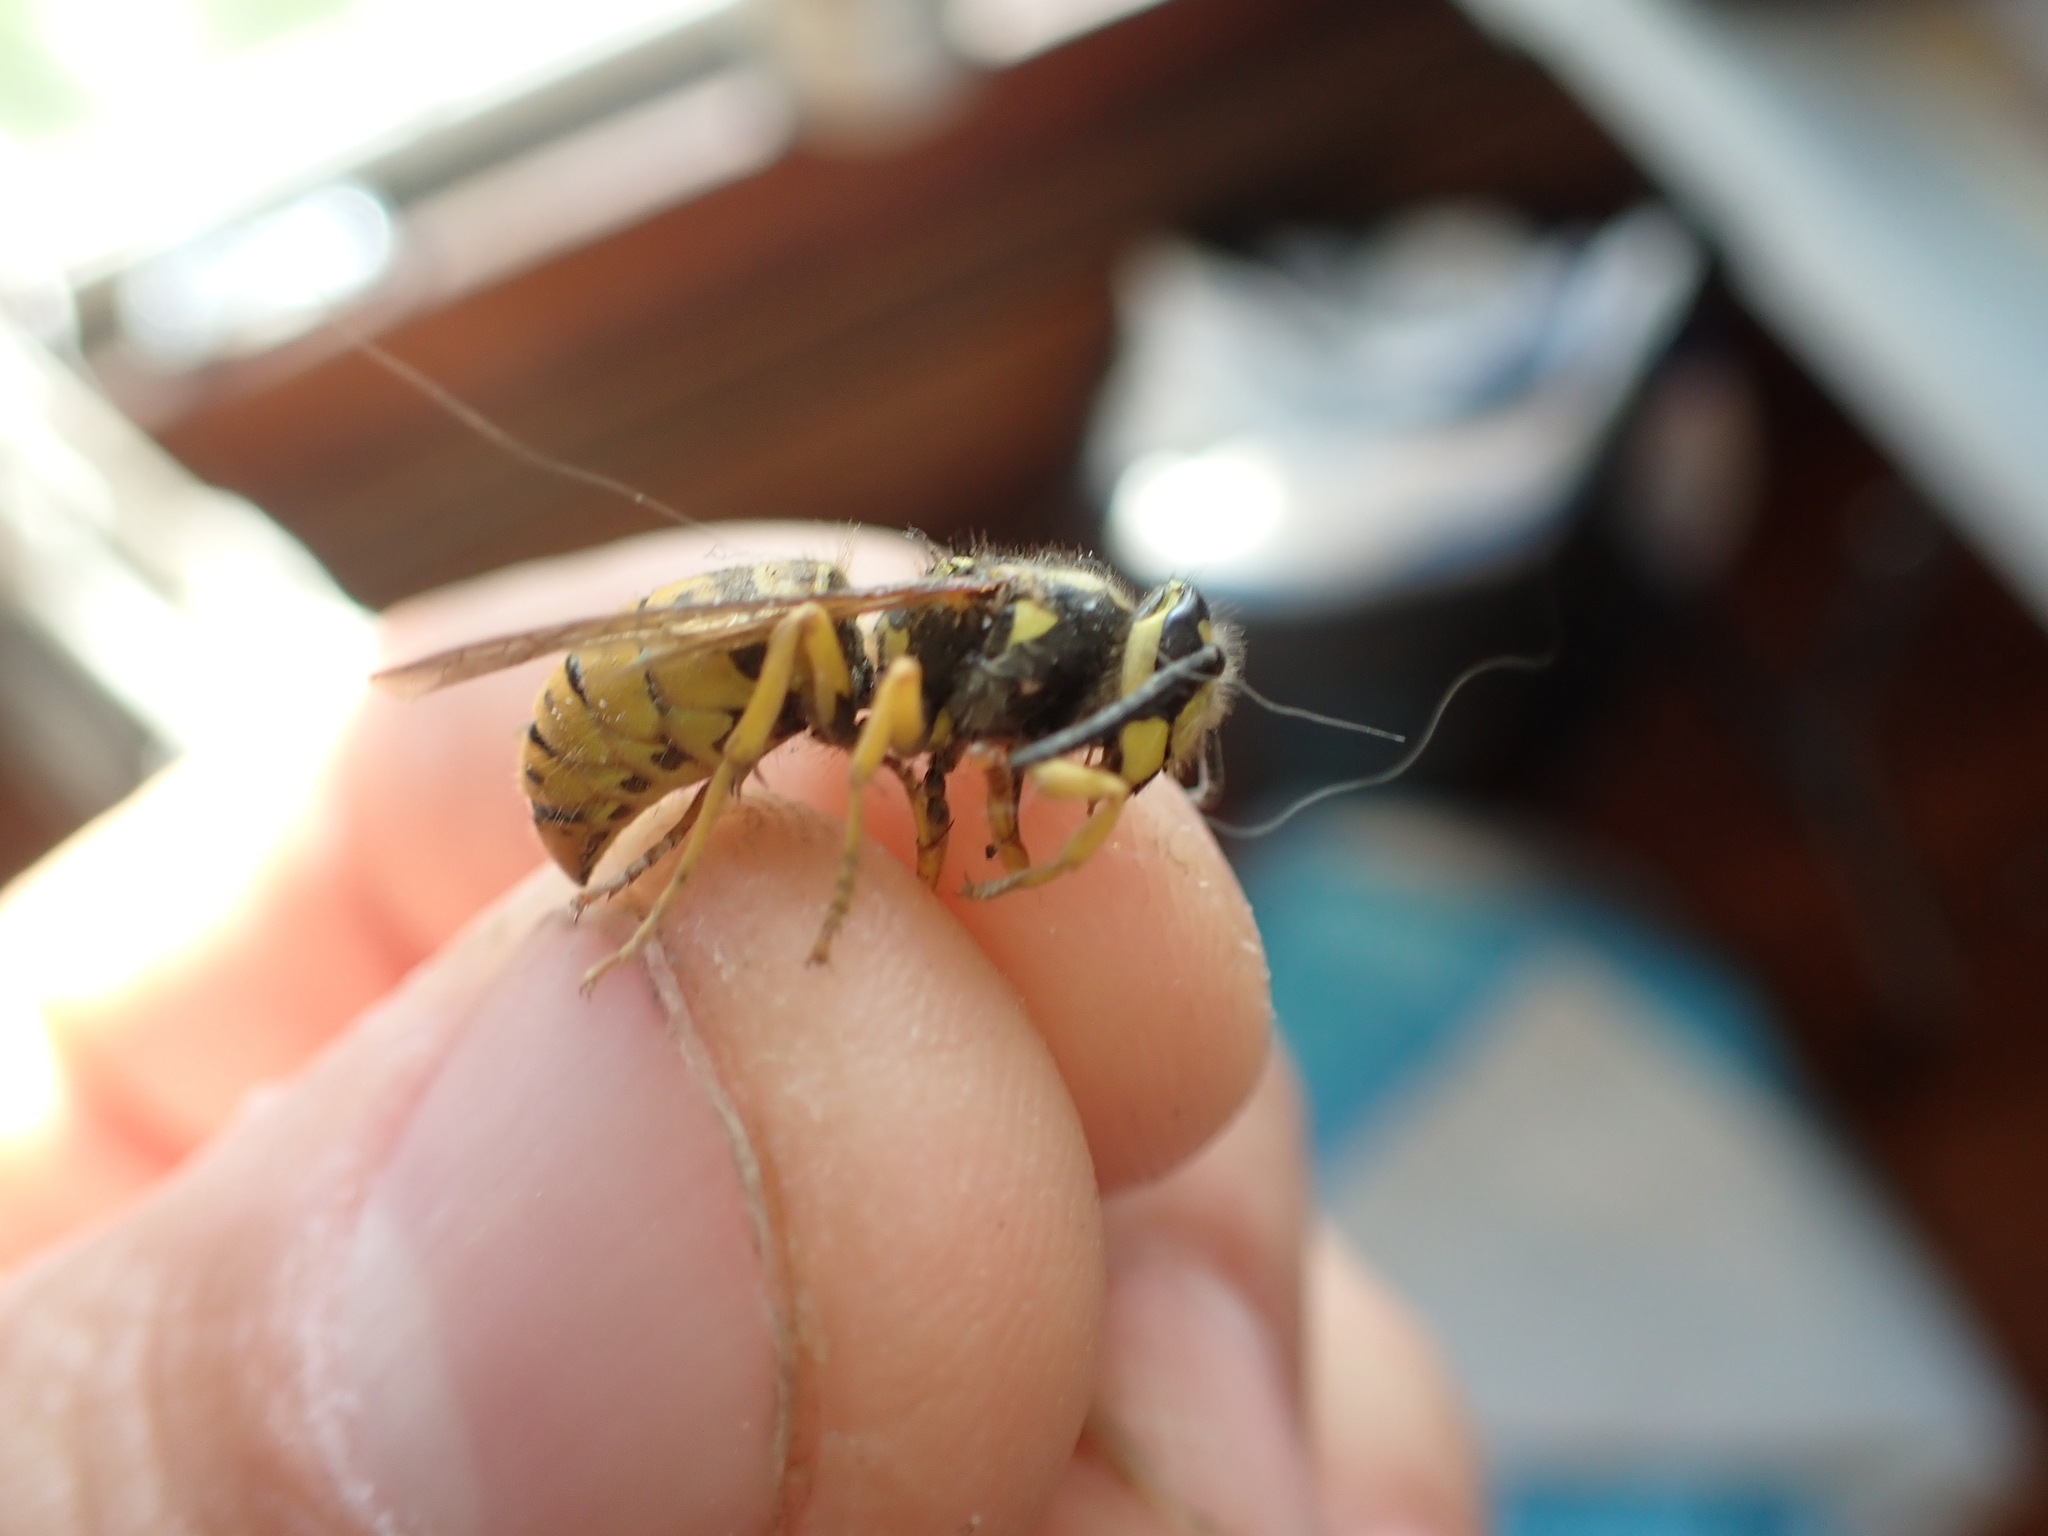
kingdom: Animalia
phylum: Arthropoda
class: Insecta
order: Hymenoptera
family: Vespidae
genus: Vespula
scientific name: Vespula maculifrons
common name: Eastern yellowjacket
